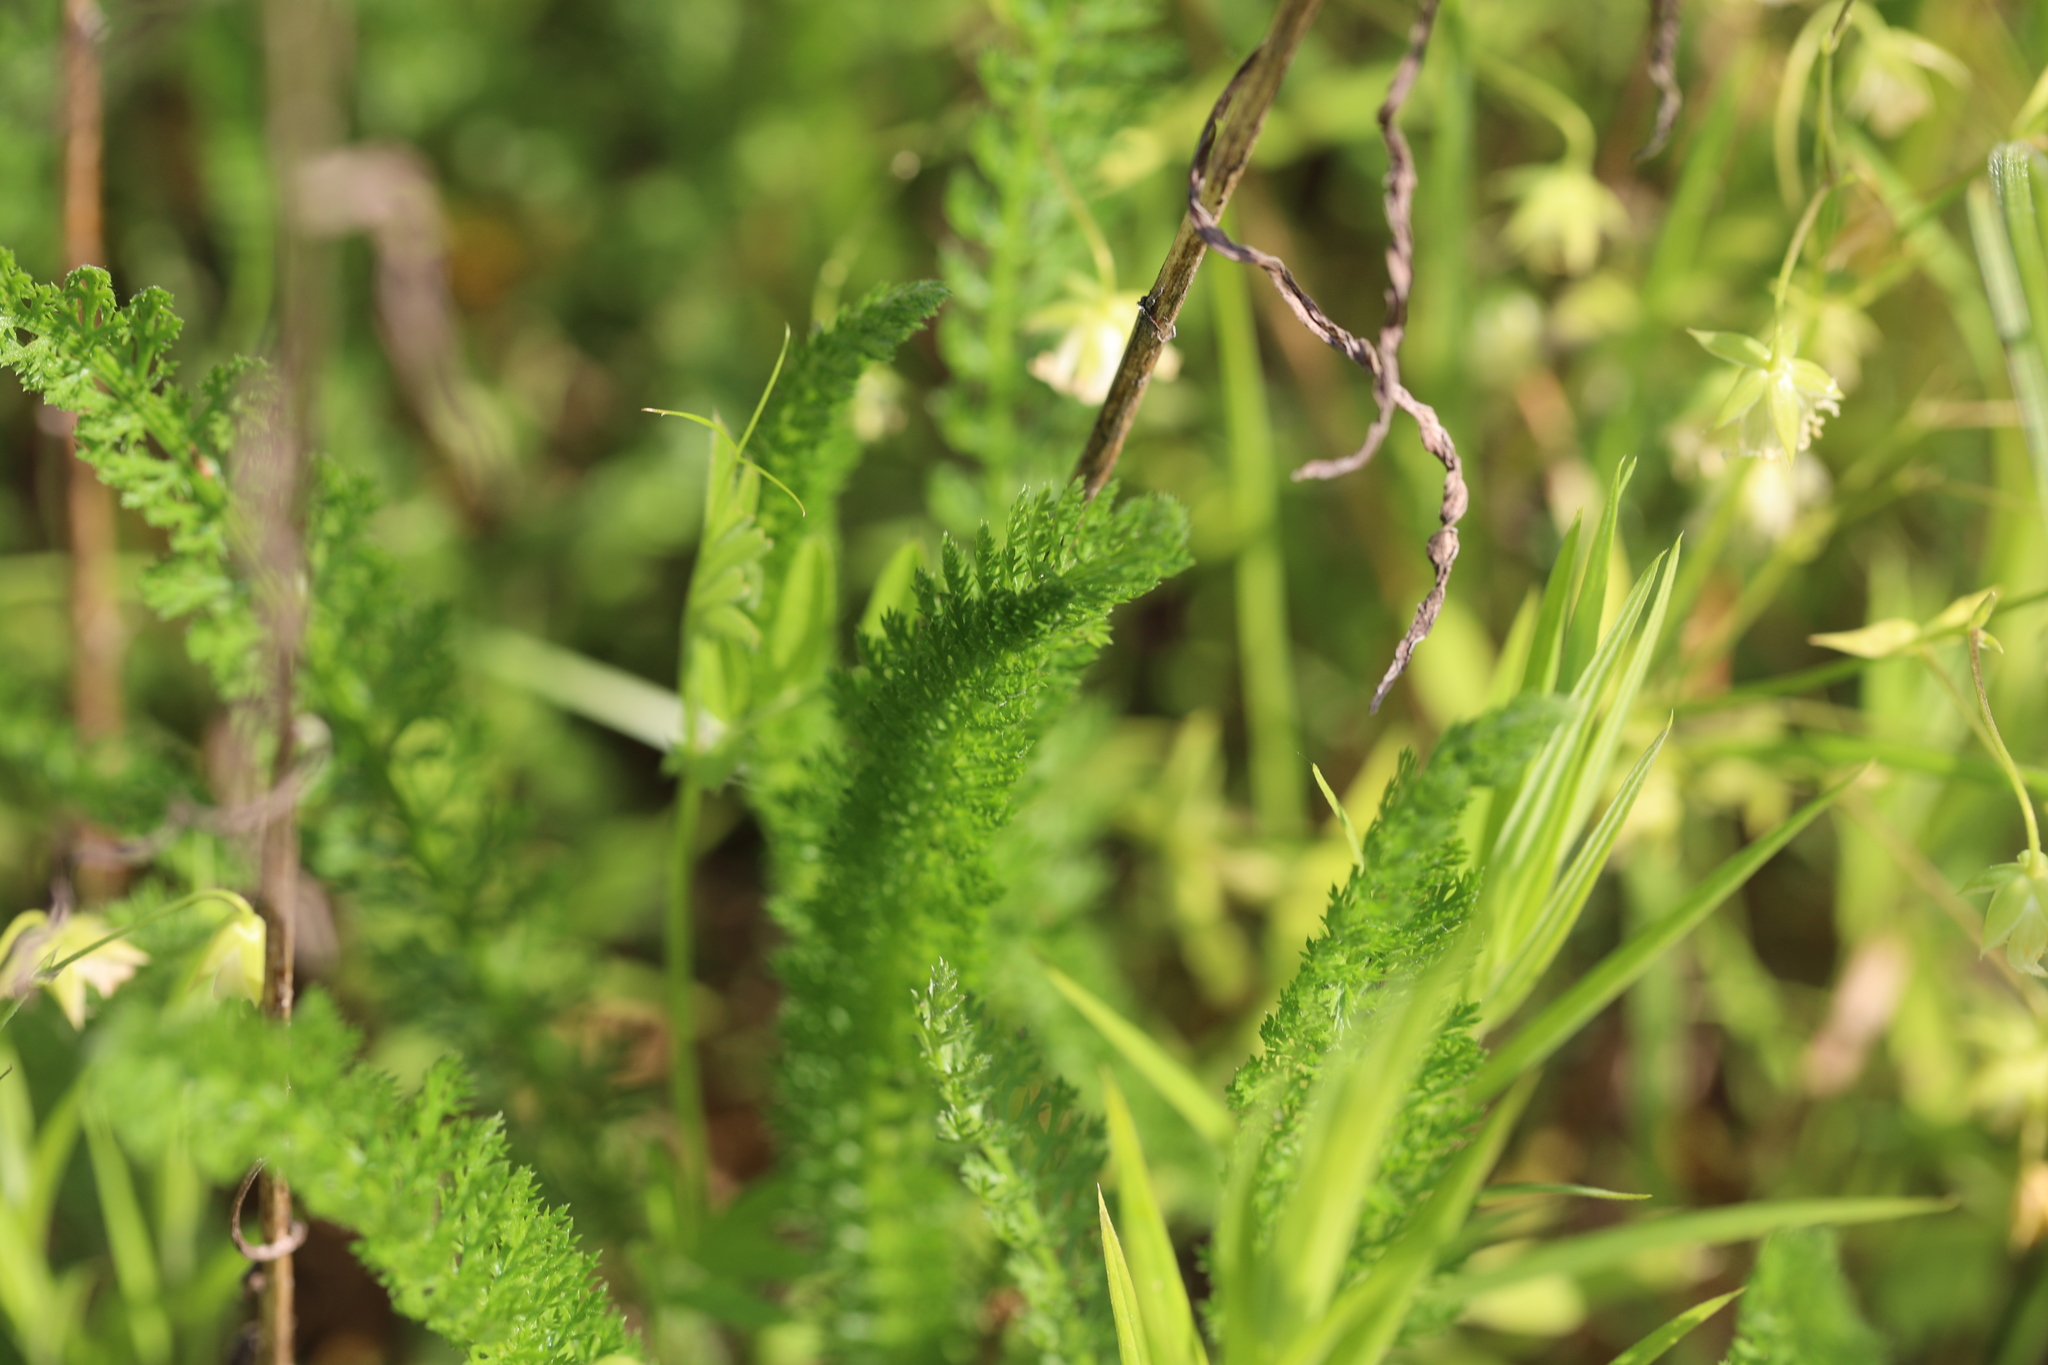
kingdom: Plantae
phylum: Tracheophyta
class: Magnoliopsida
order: Asterales
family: Asteraceae
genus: Achillea
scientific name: Achillea millefolium
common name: Yarrow
